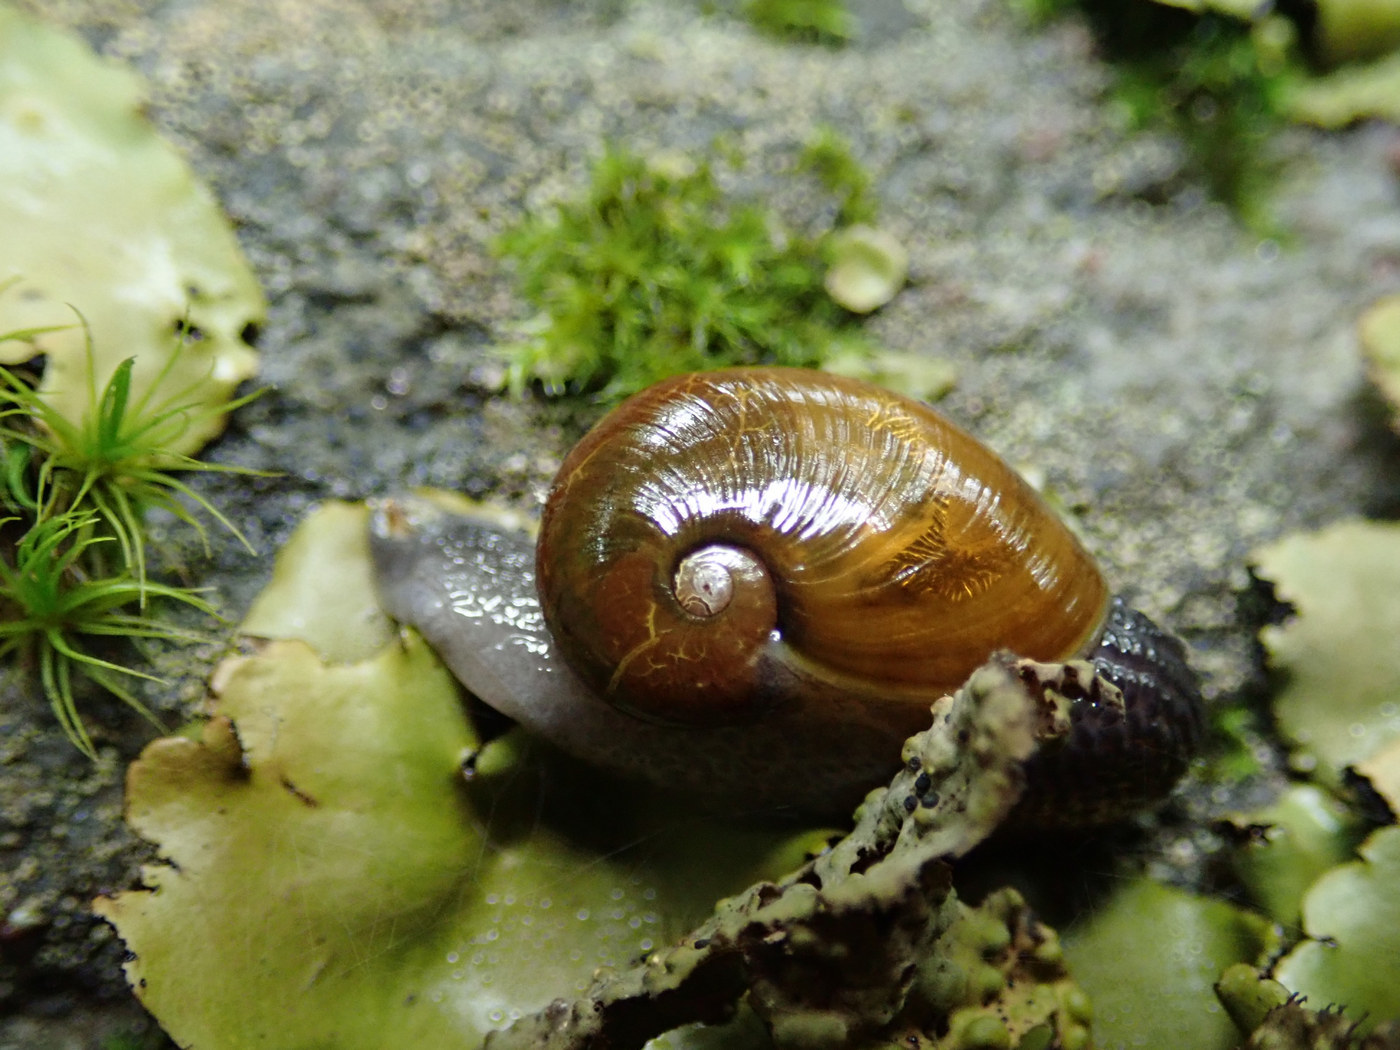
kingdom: Animalia
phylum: Mollusca
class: Gastropoda
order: Stylommatophora
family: Gastrodontidae
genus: Vitrinizonites
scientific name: Vitrinizonites latissimus
